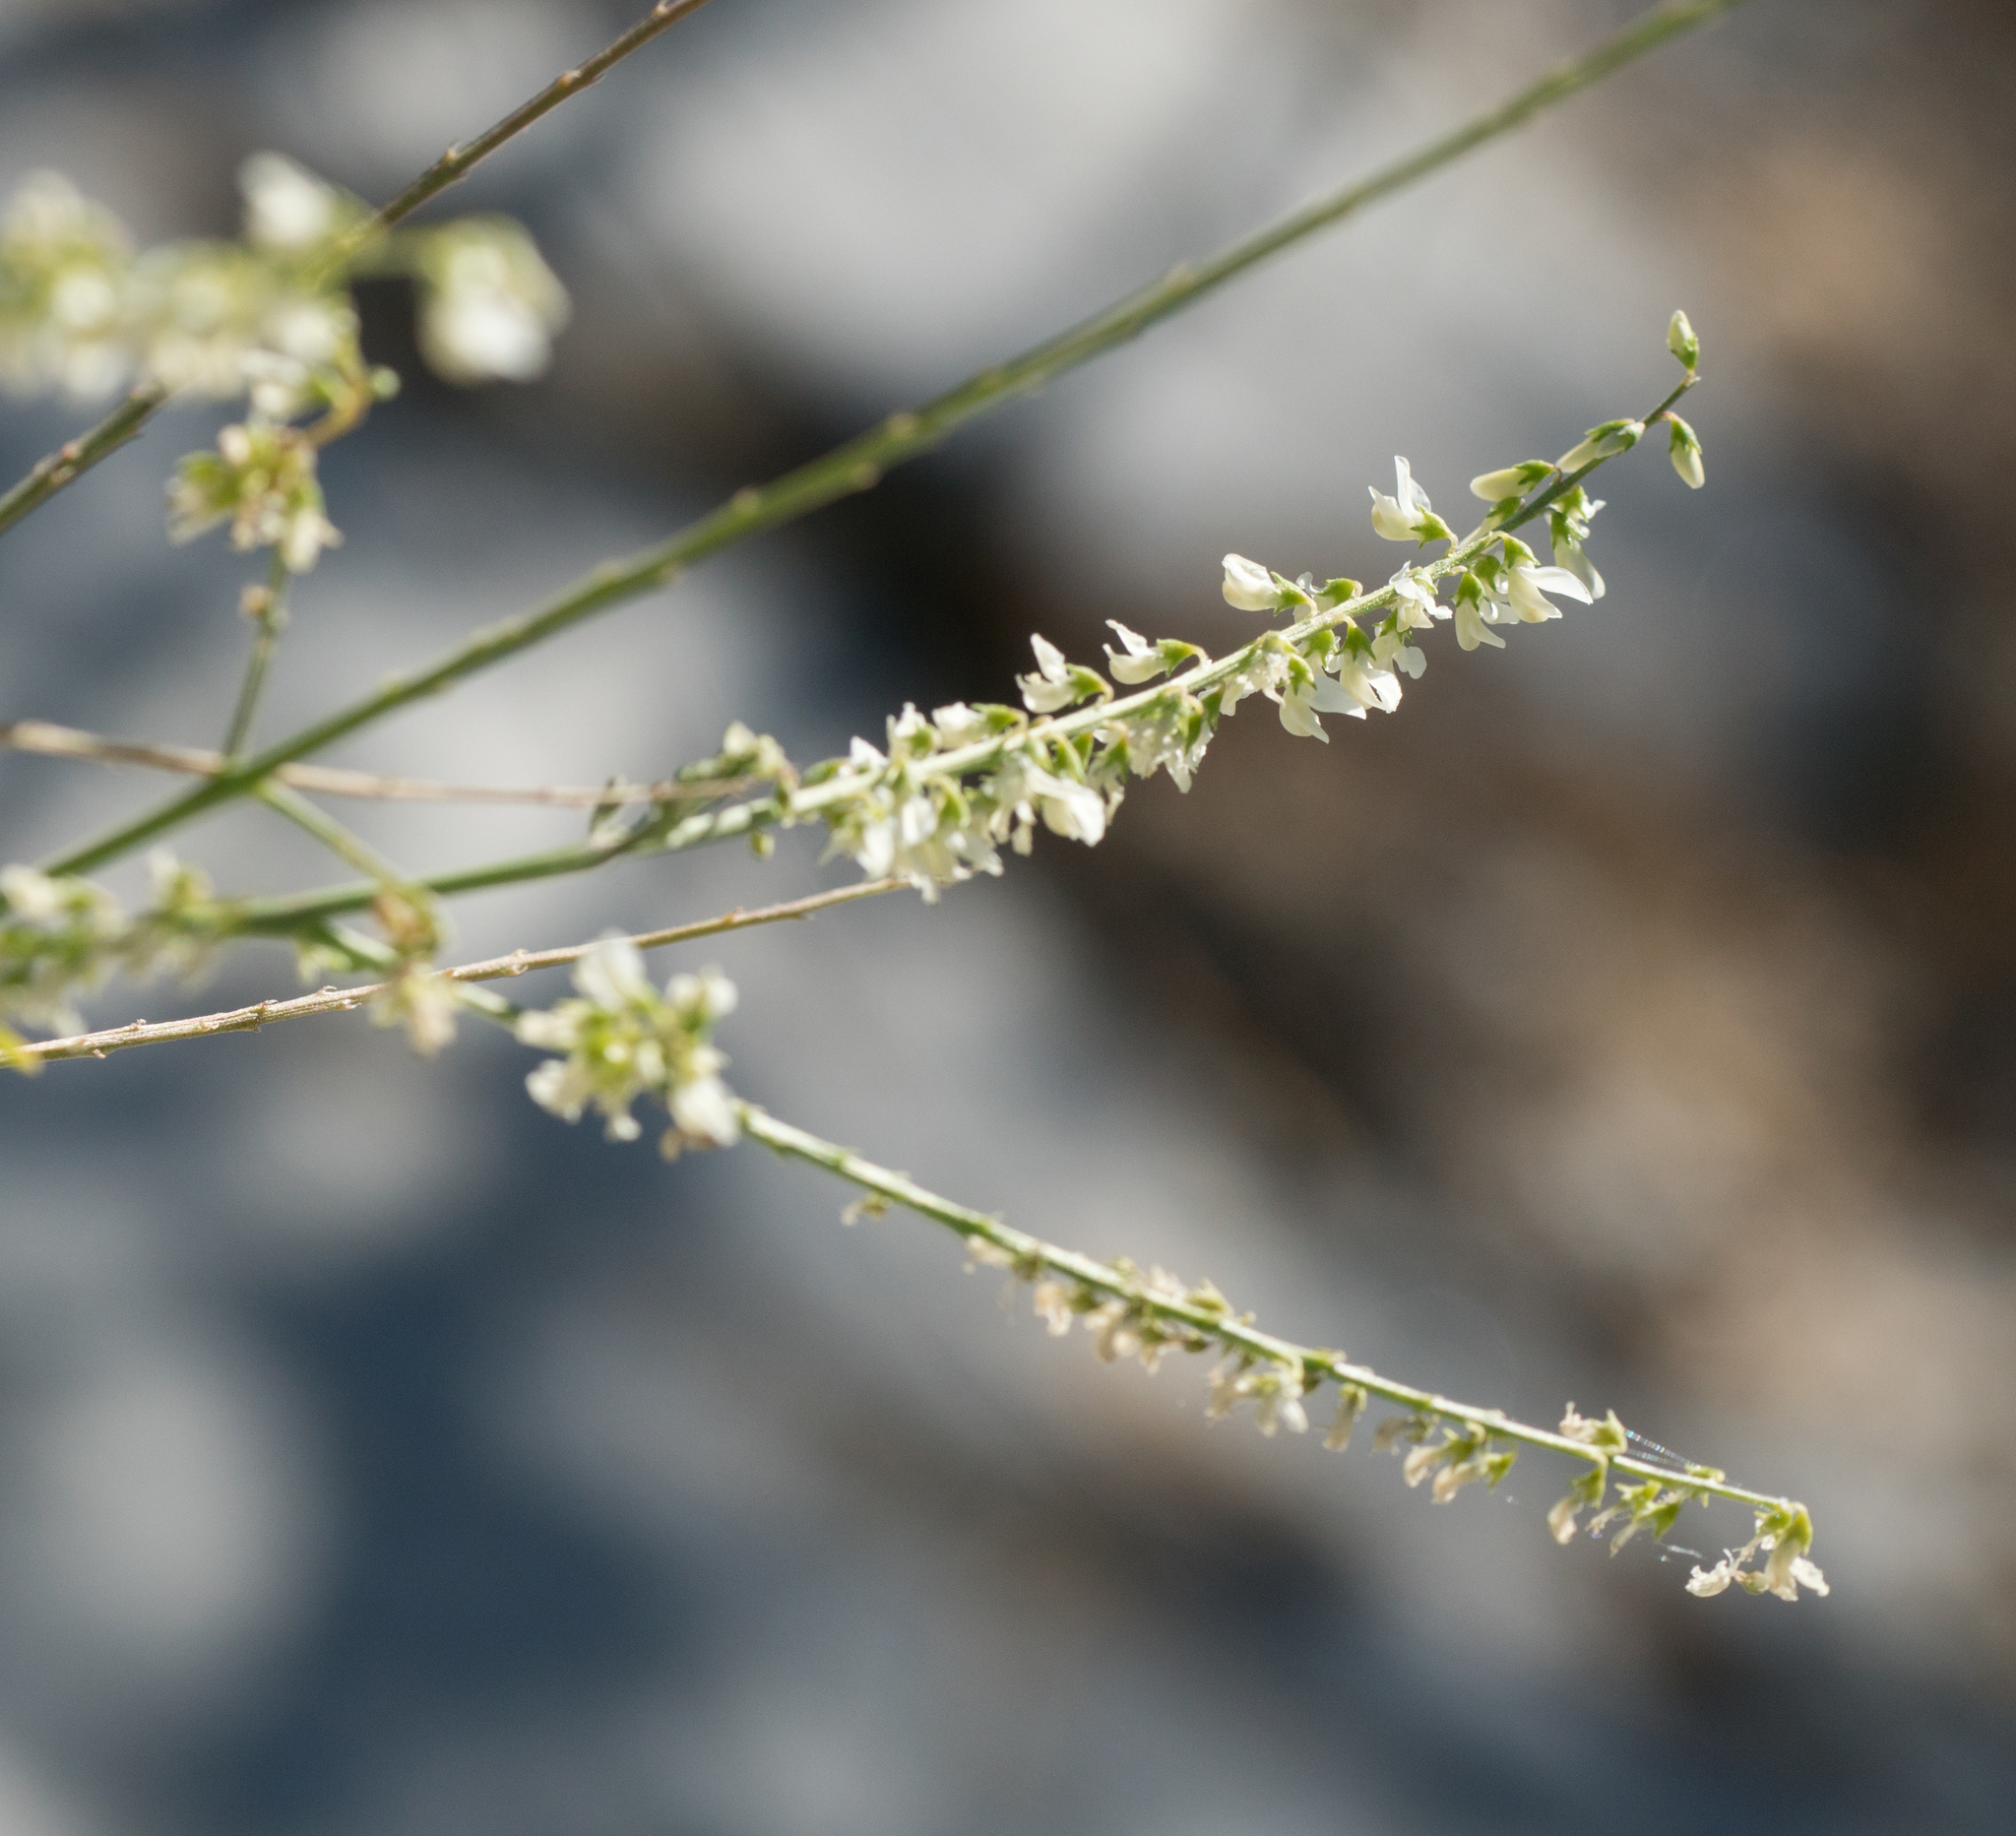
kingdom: Plantae
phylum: Tracheophyta
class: Magnoliopsida
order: Fabales
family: Fabaceae
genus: Melilotus
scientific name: Melilotus albus
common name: White melilot
